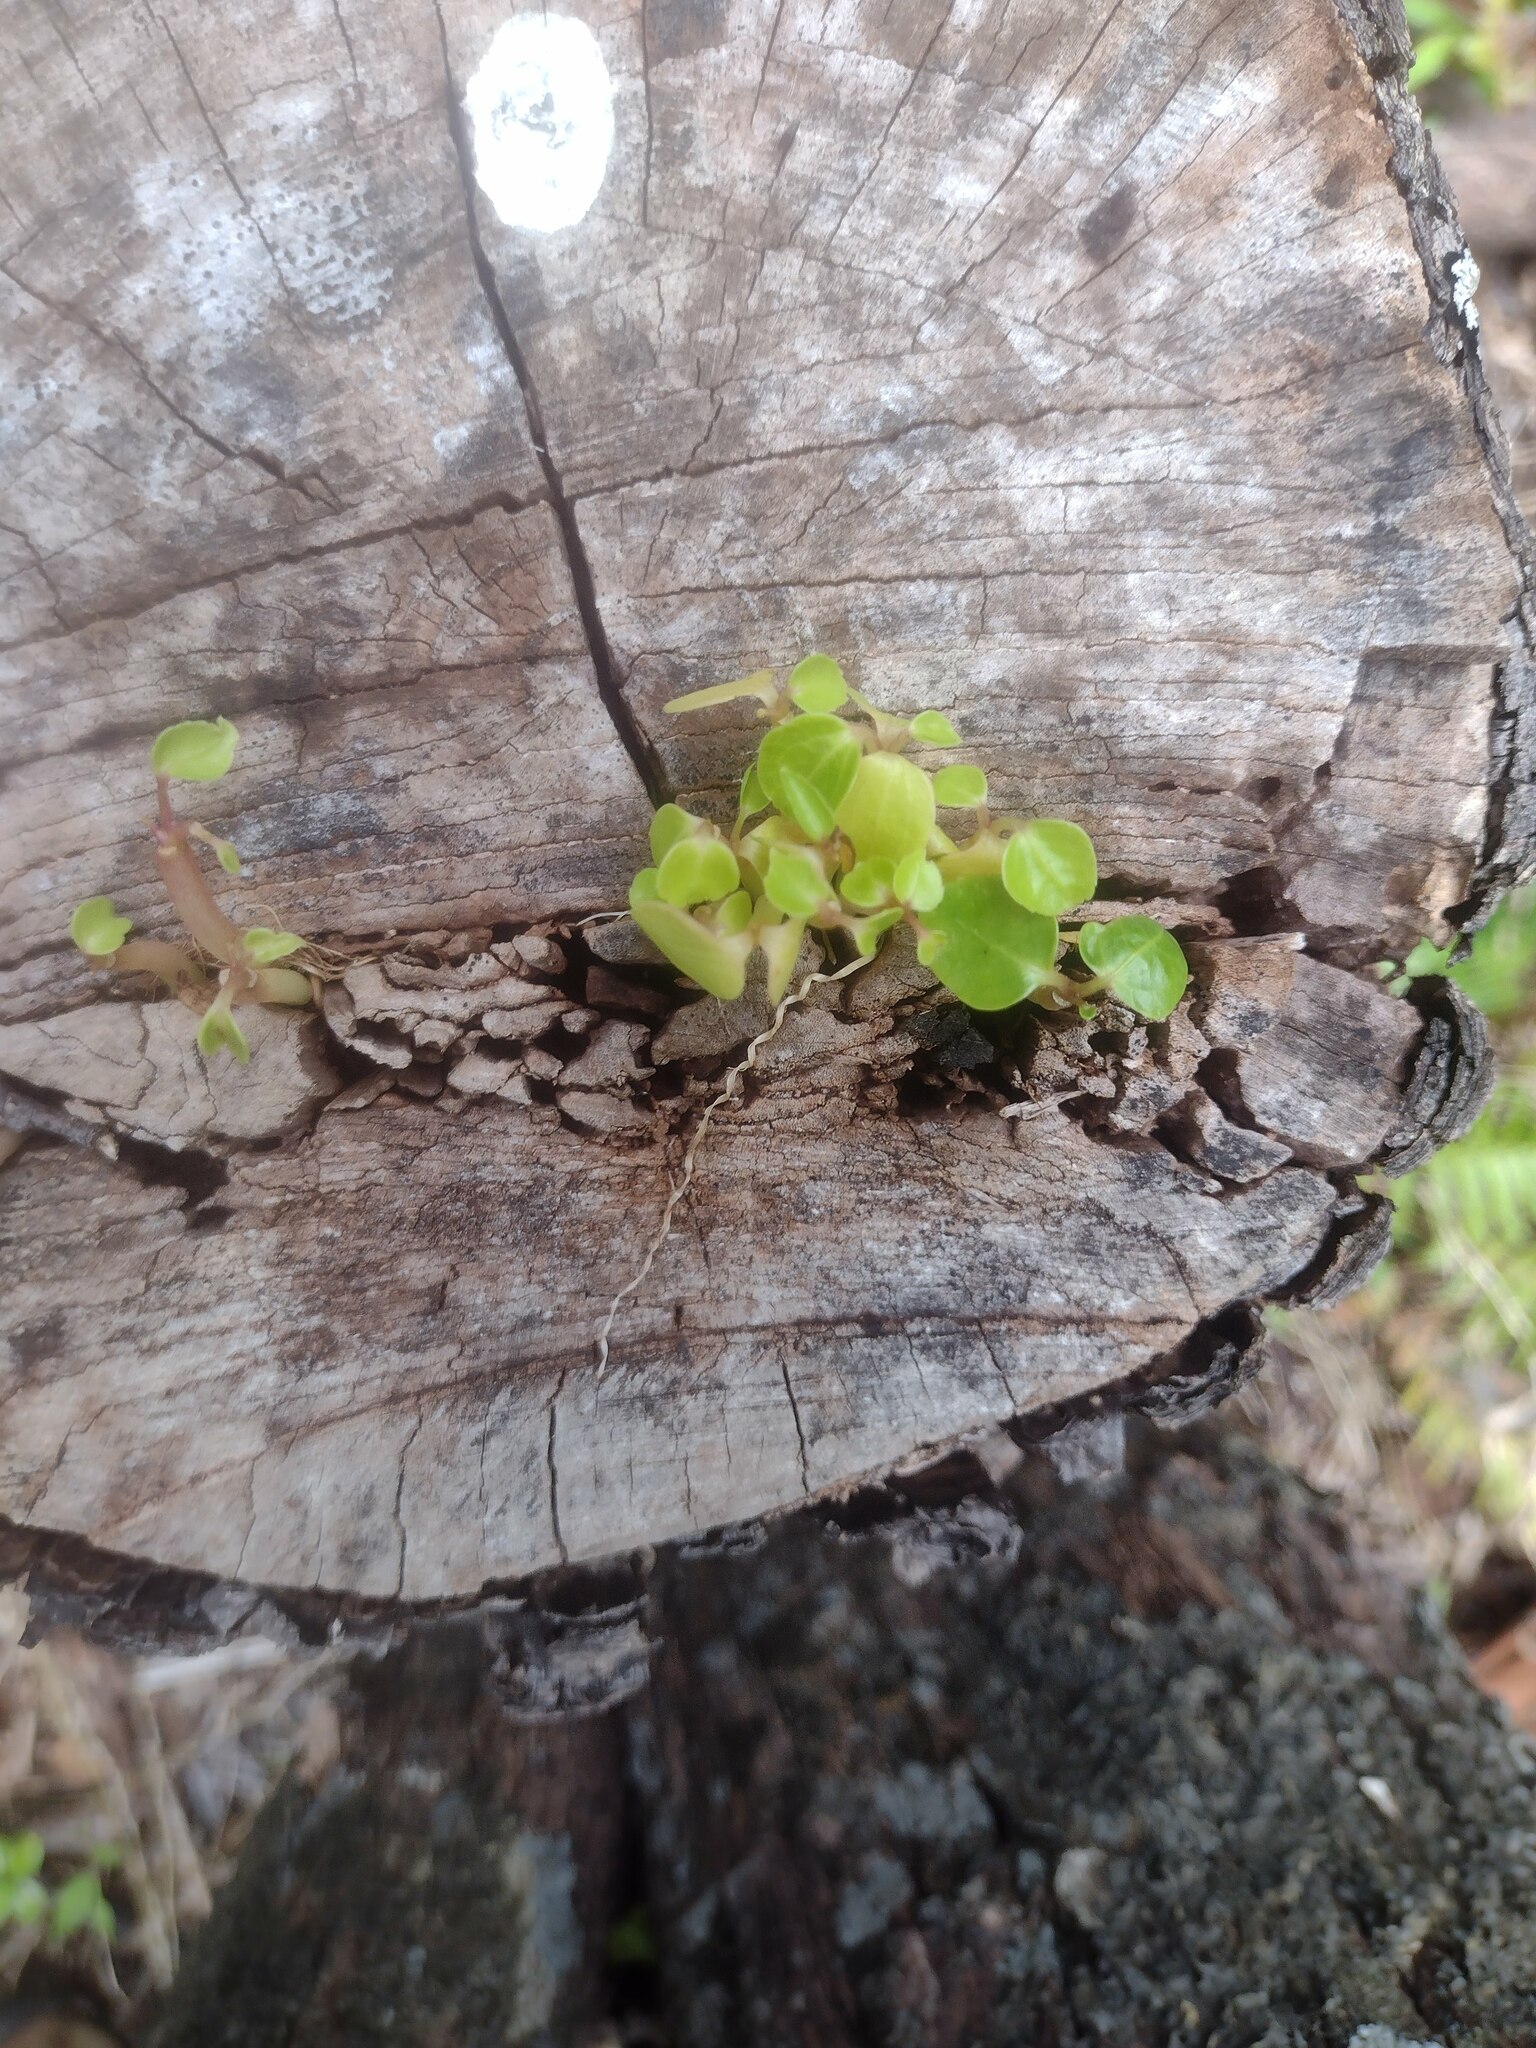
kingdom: Plantae
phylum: Tracheophyta
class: Magnoliopsida
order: Apiales
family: Araliaceae
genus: Heptapleurum
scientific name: Heptapleurum actinophyllum
